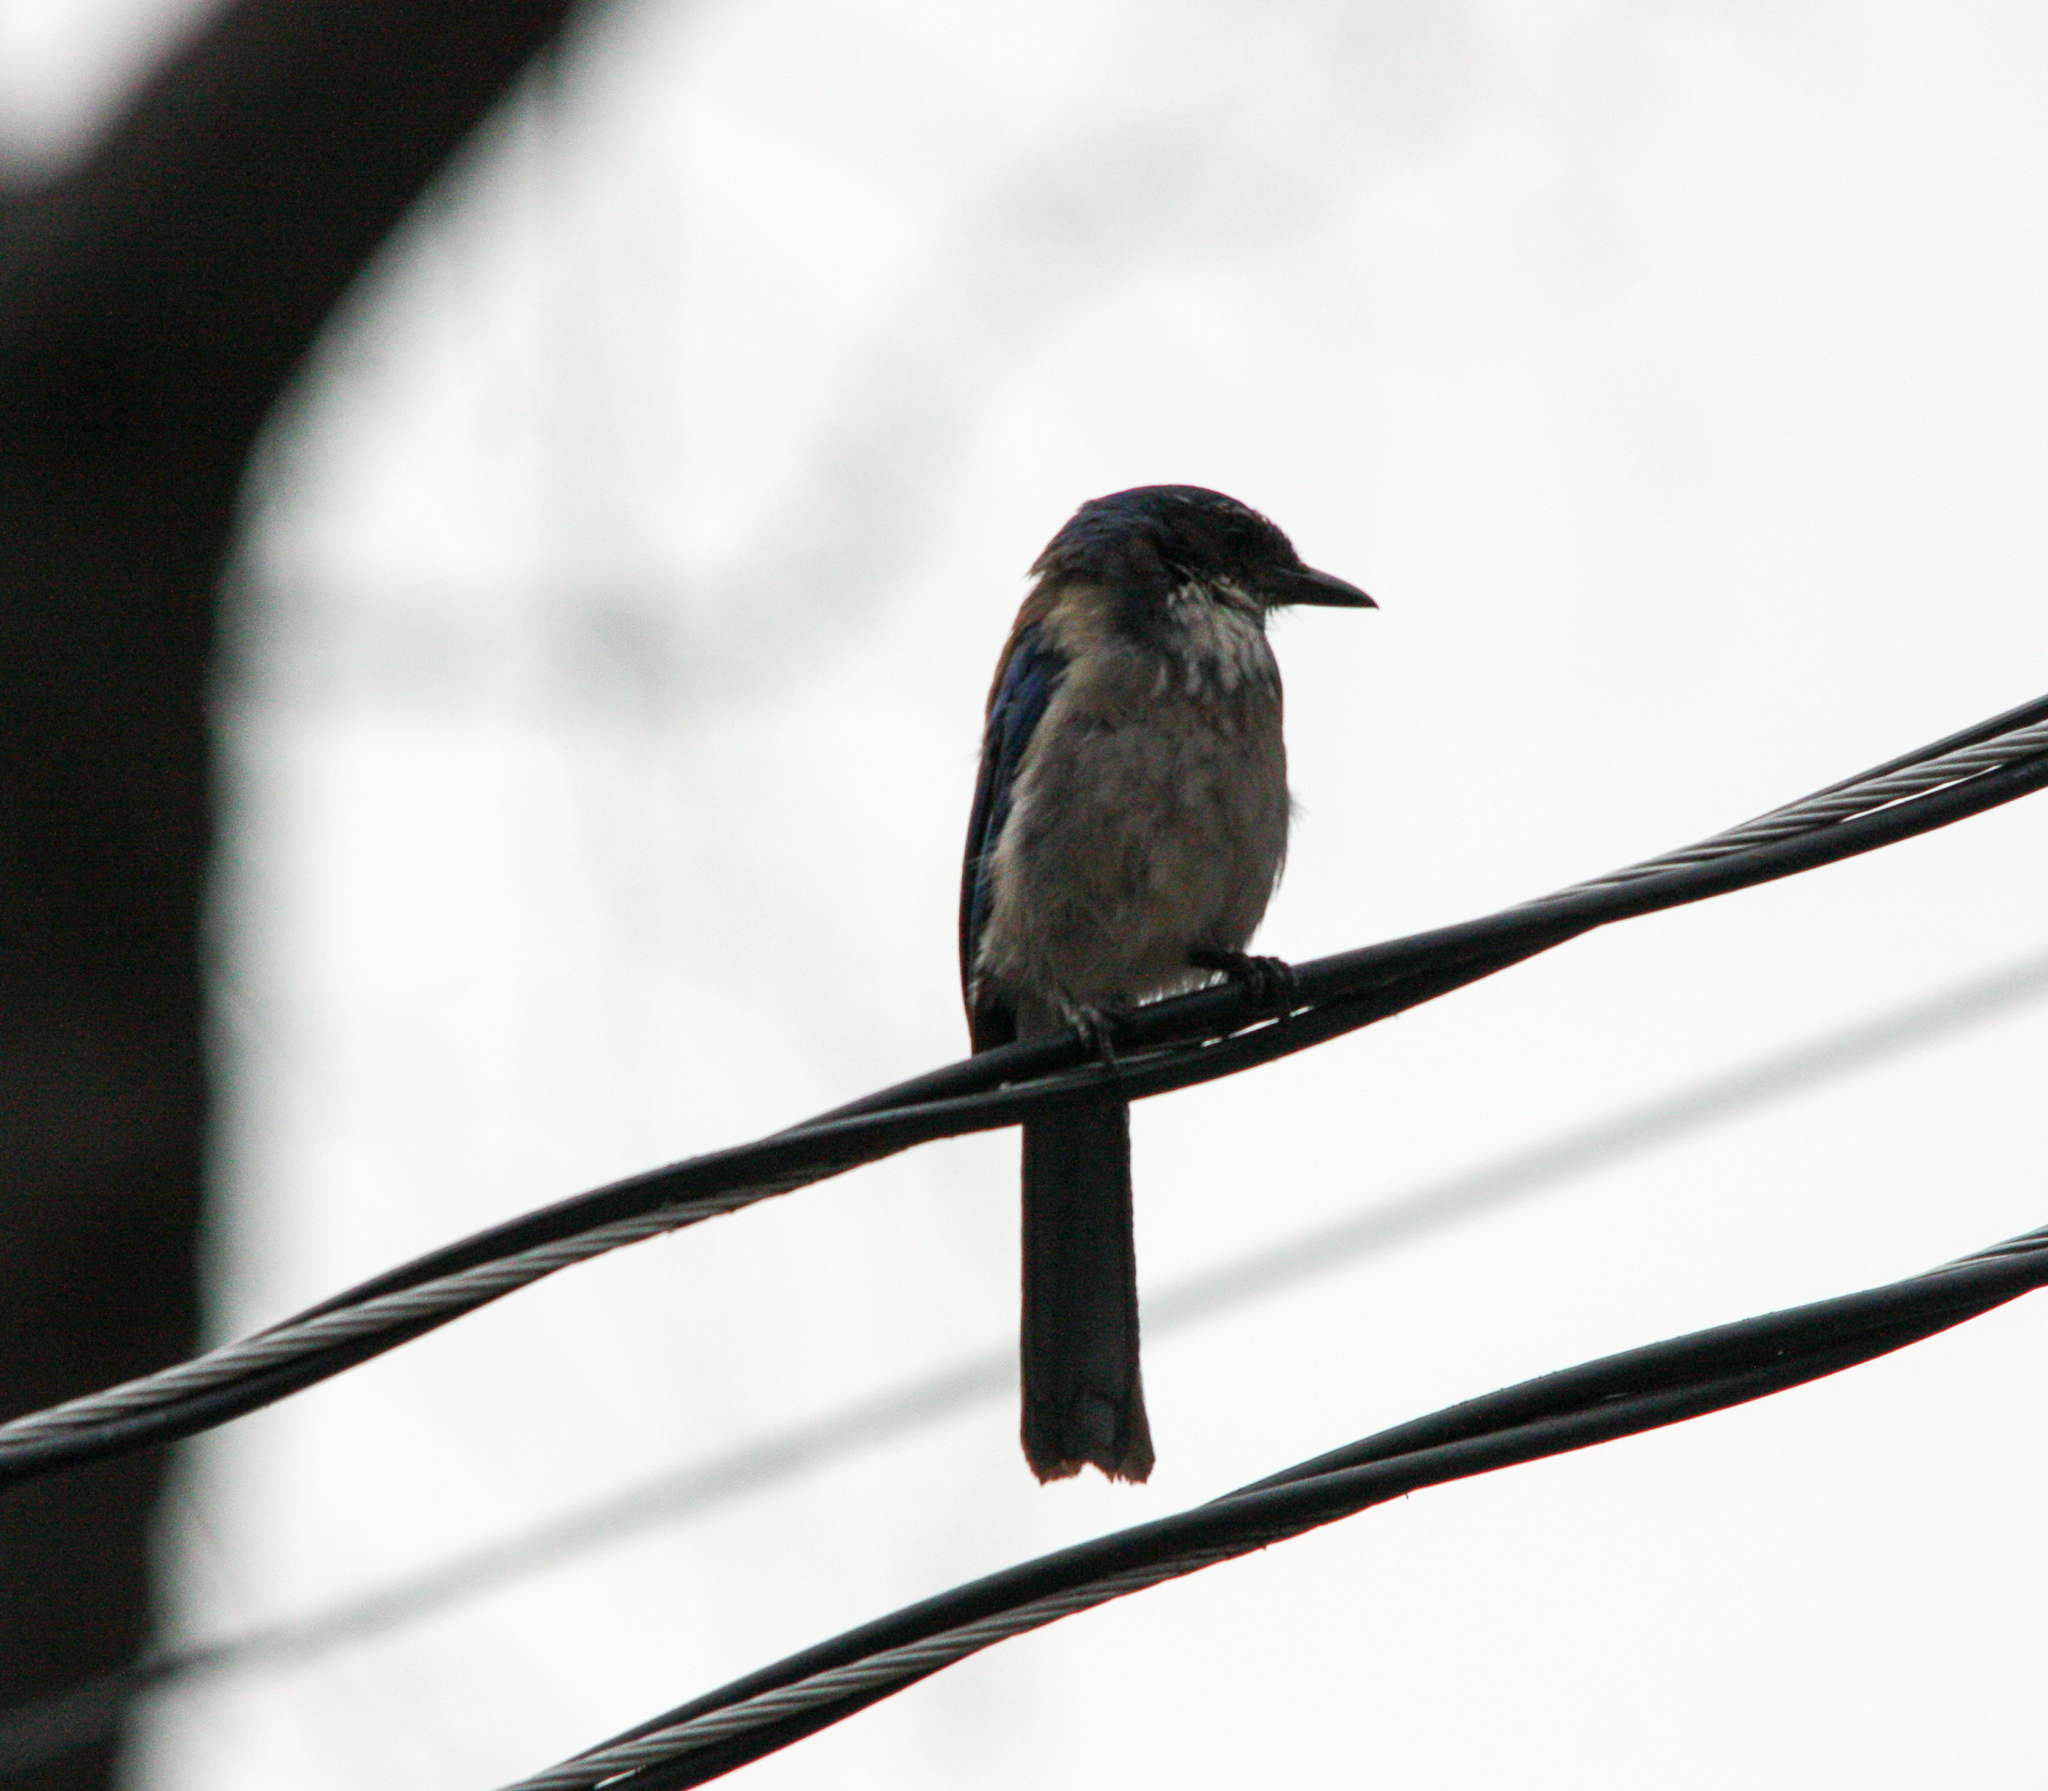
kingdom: Animalia
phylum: Chordata
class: Aves
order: Passeriformes
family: Corvidae
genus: Aphelocoma
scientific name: Aphelocoma californica
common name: California scrub-jay
